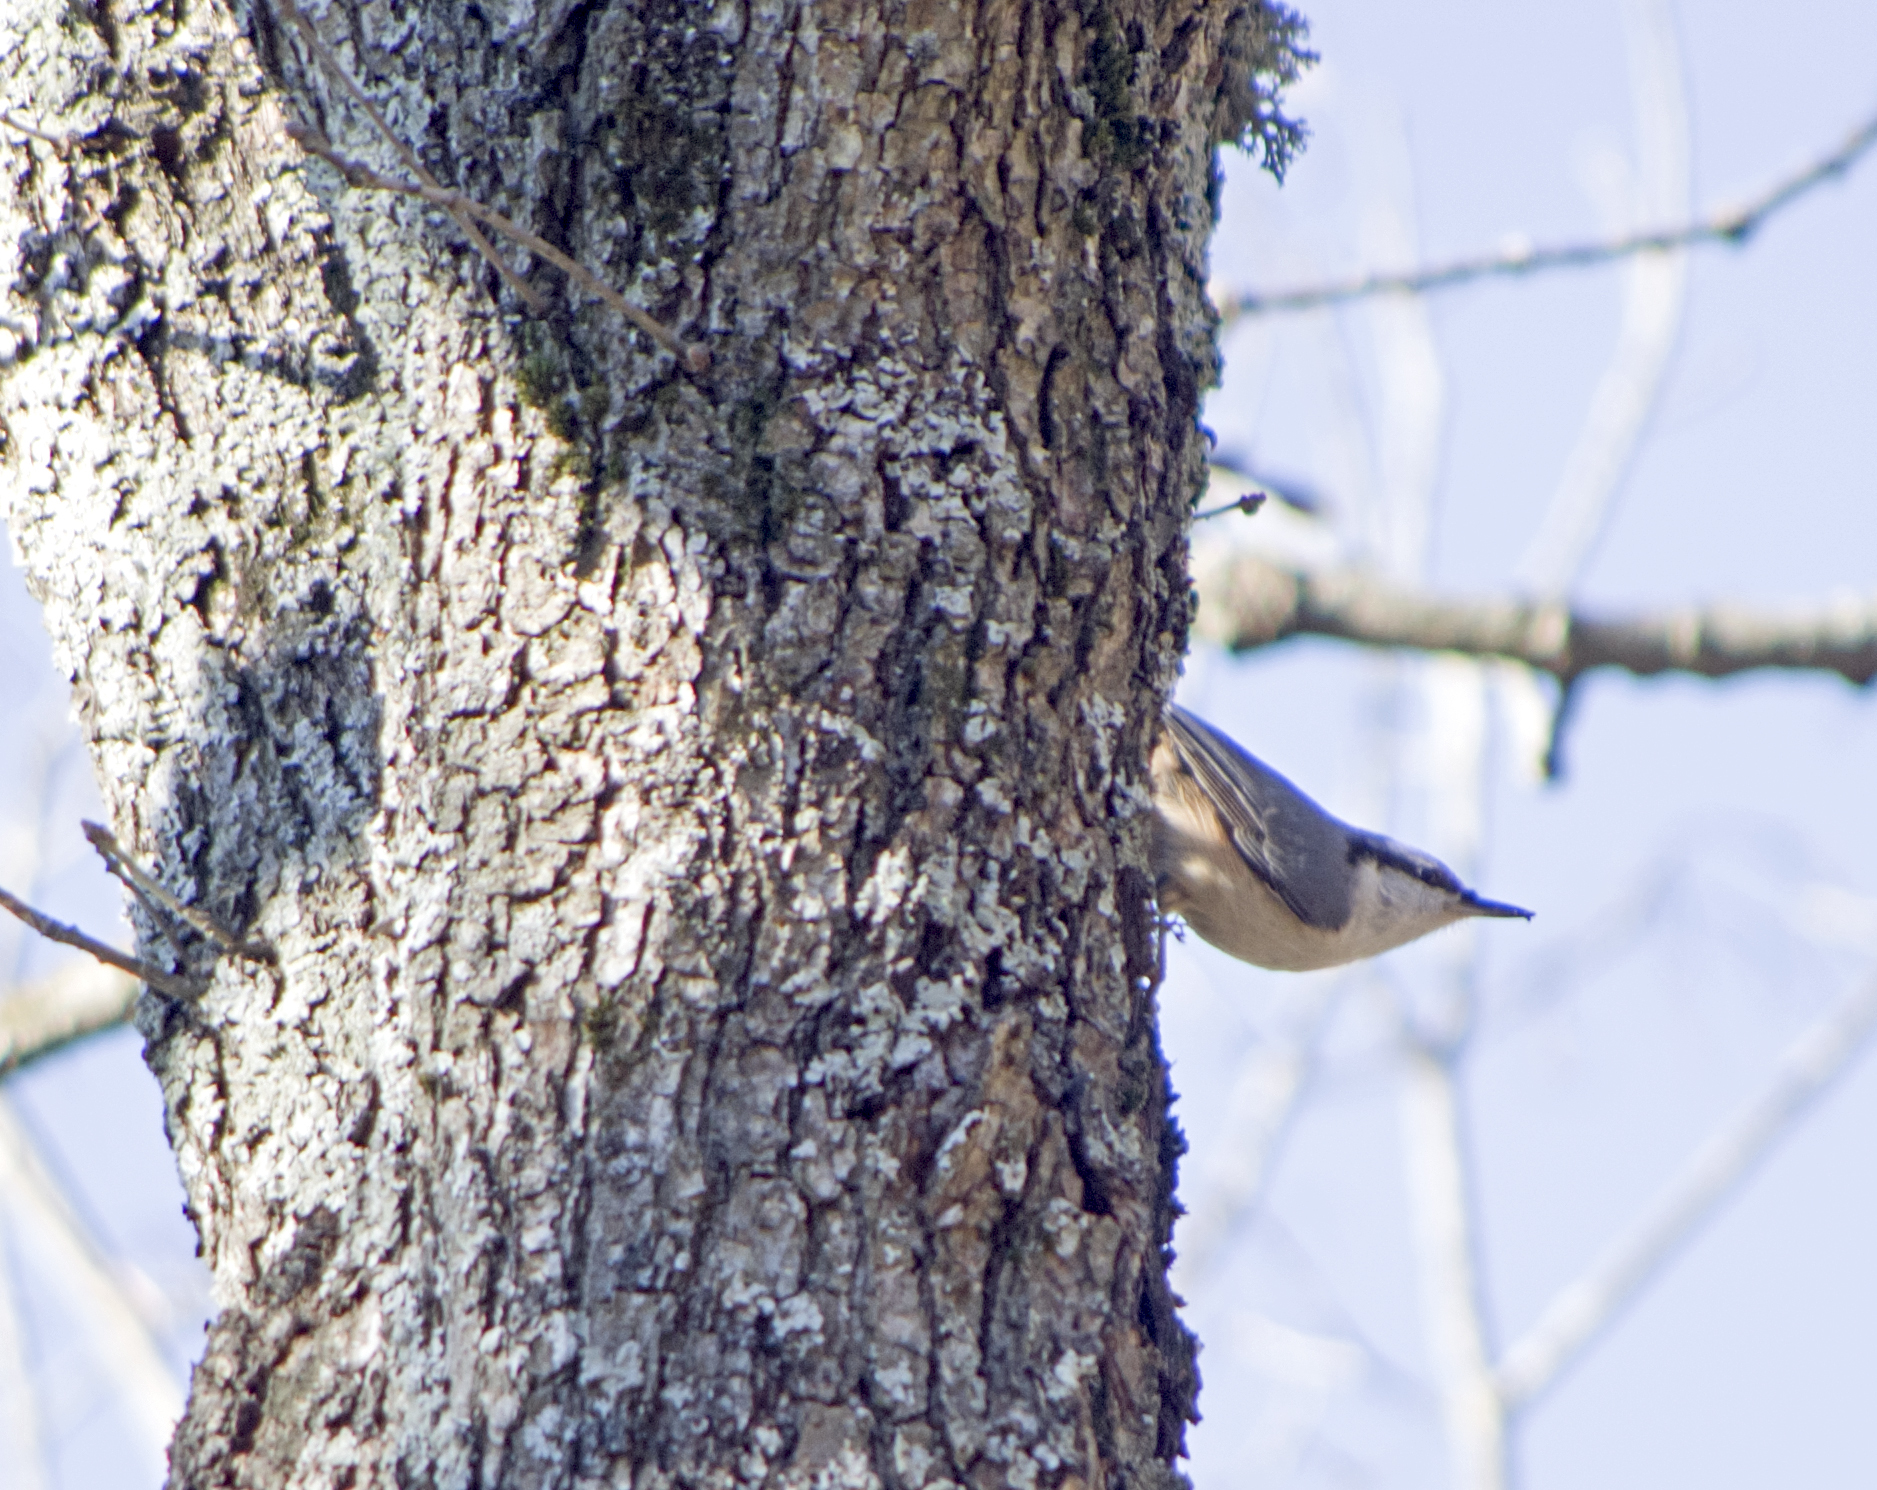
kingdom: Animalia
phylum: Chordata
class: Aves
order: Passeriformes
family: Sittidae
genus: Sitta
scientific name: Sitta europaea
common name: Eurasian nuthatch
